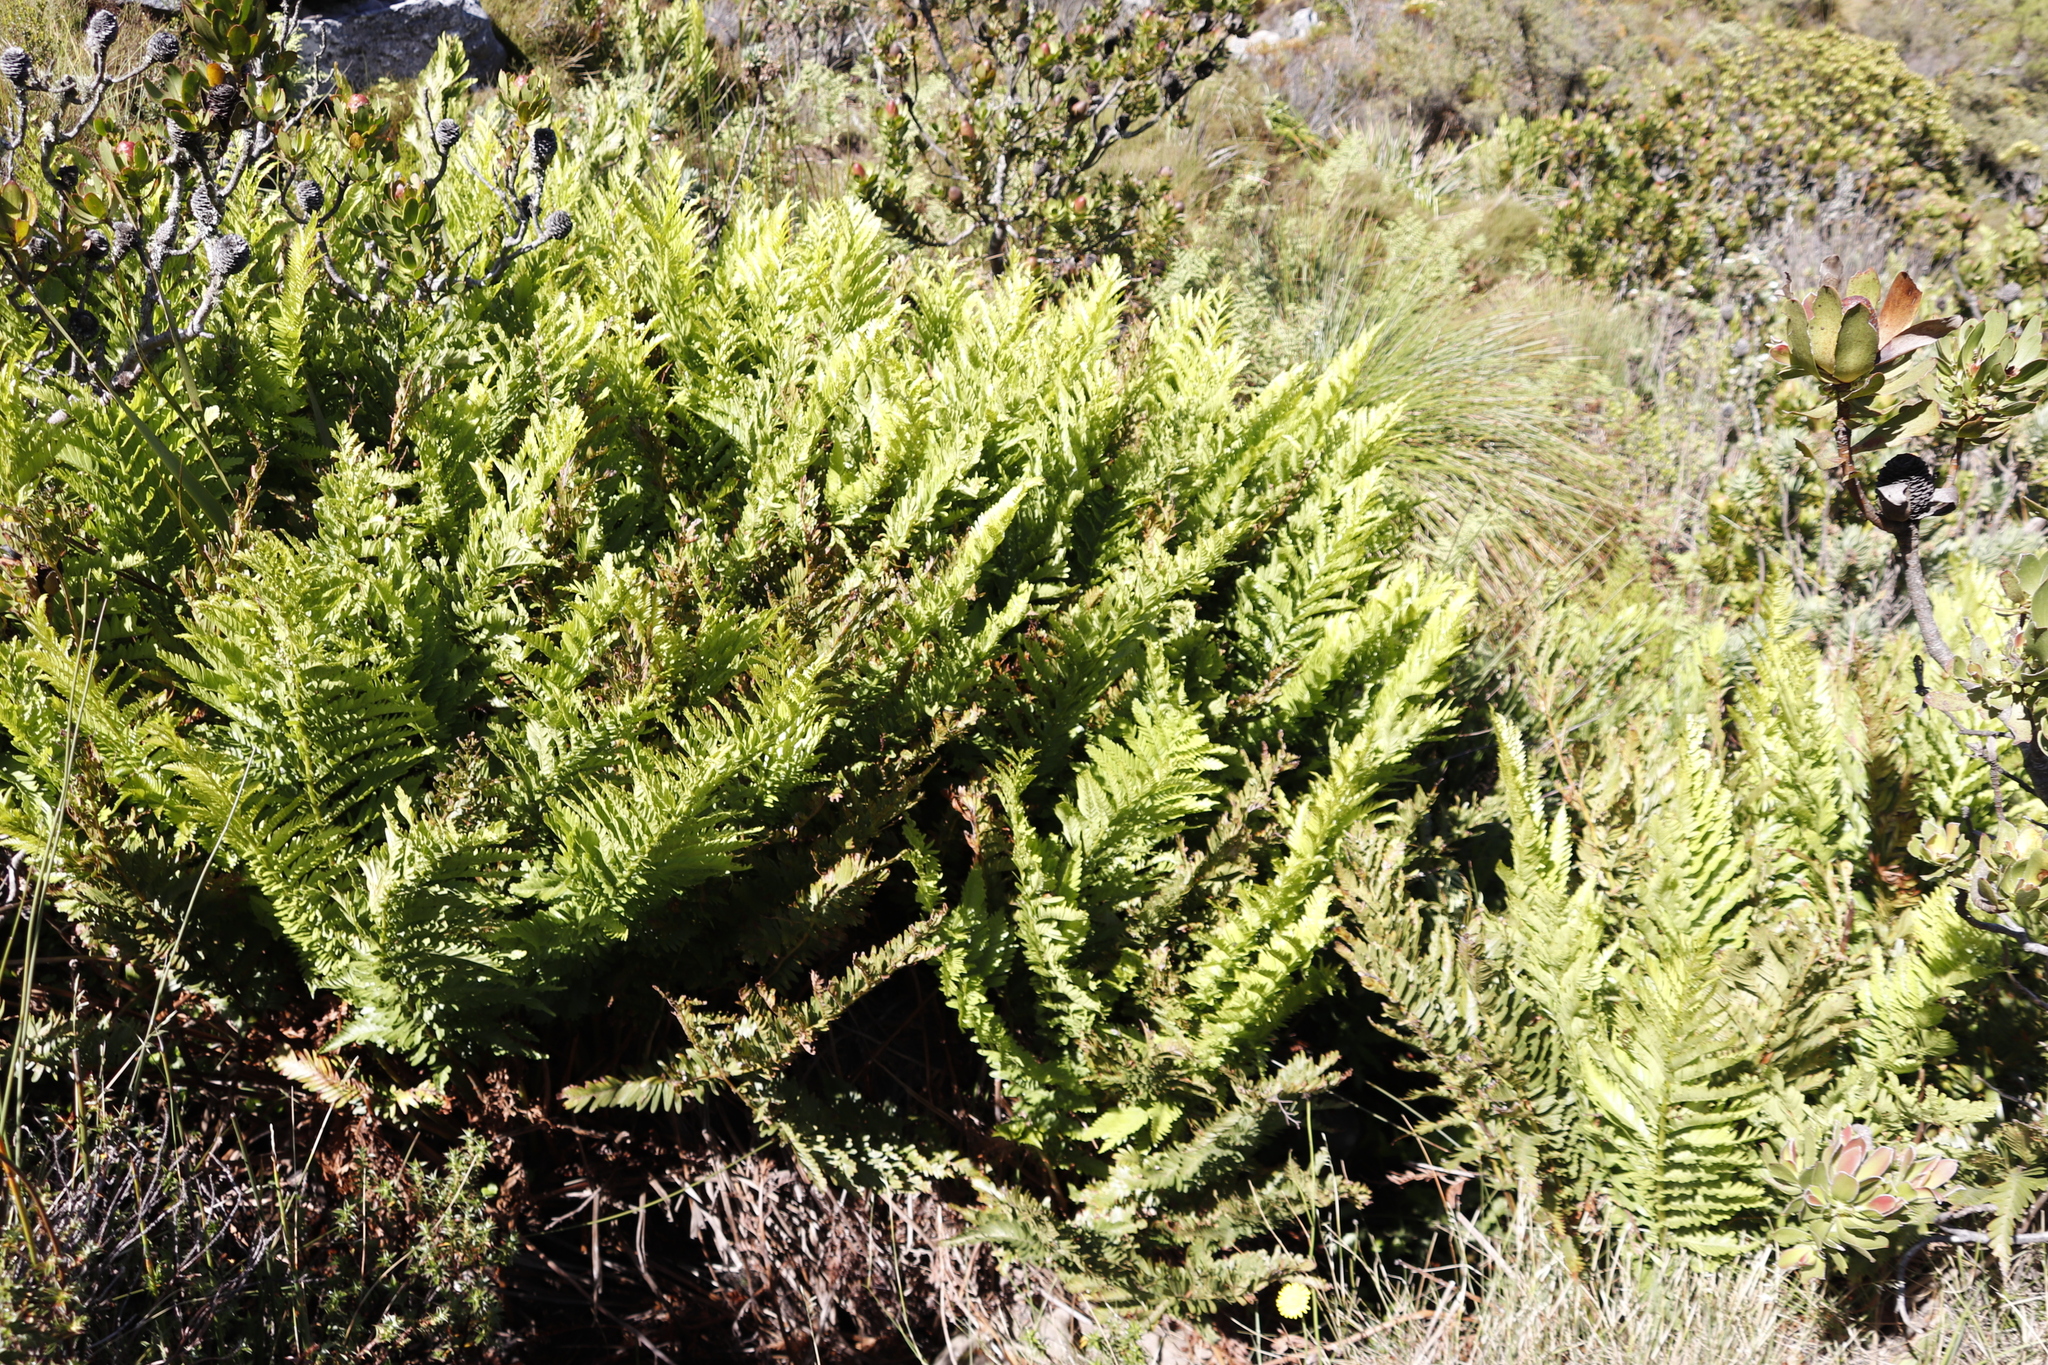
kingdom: Plantae
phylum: Tracheophyta
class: Polypodiopsida
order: Osmundales
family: Osmundaceae
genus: Todea
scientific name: Todea barbara
